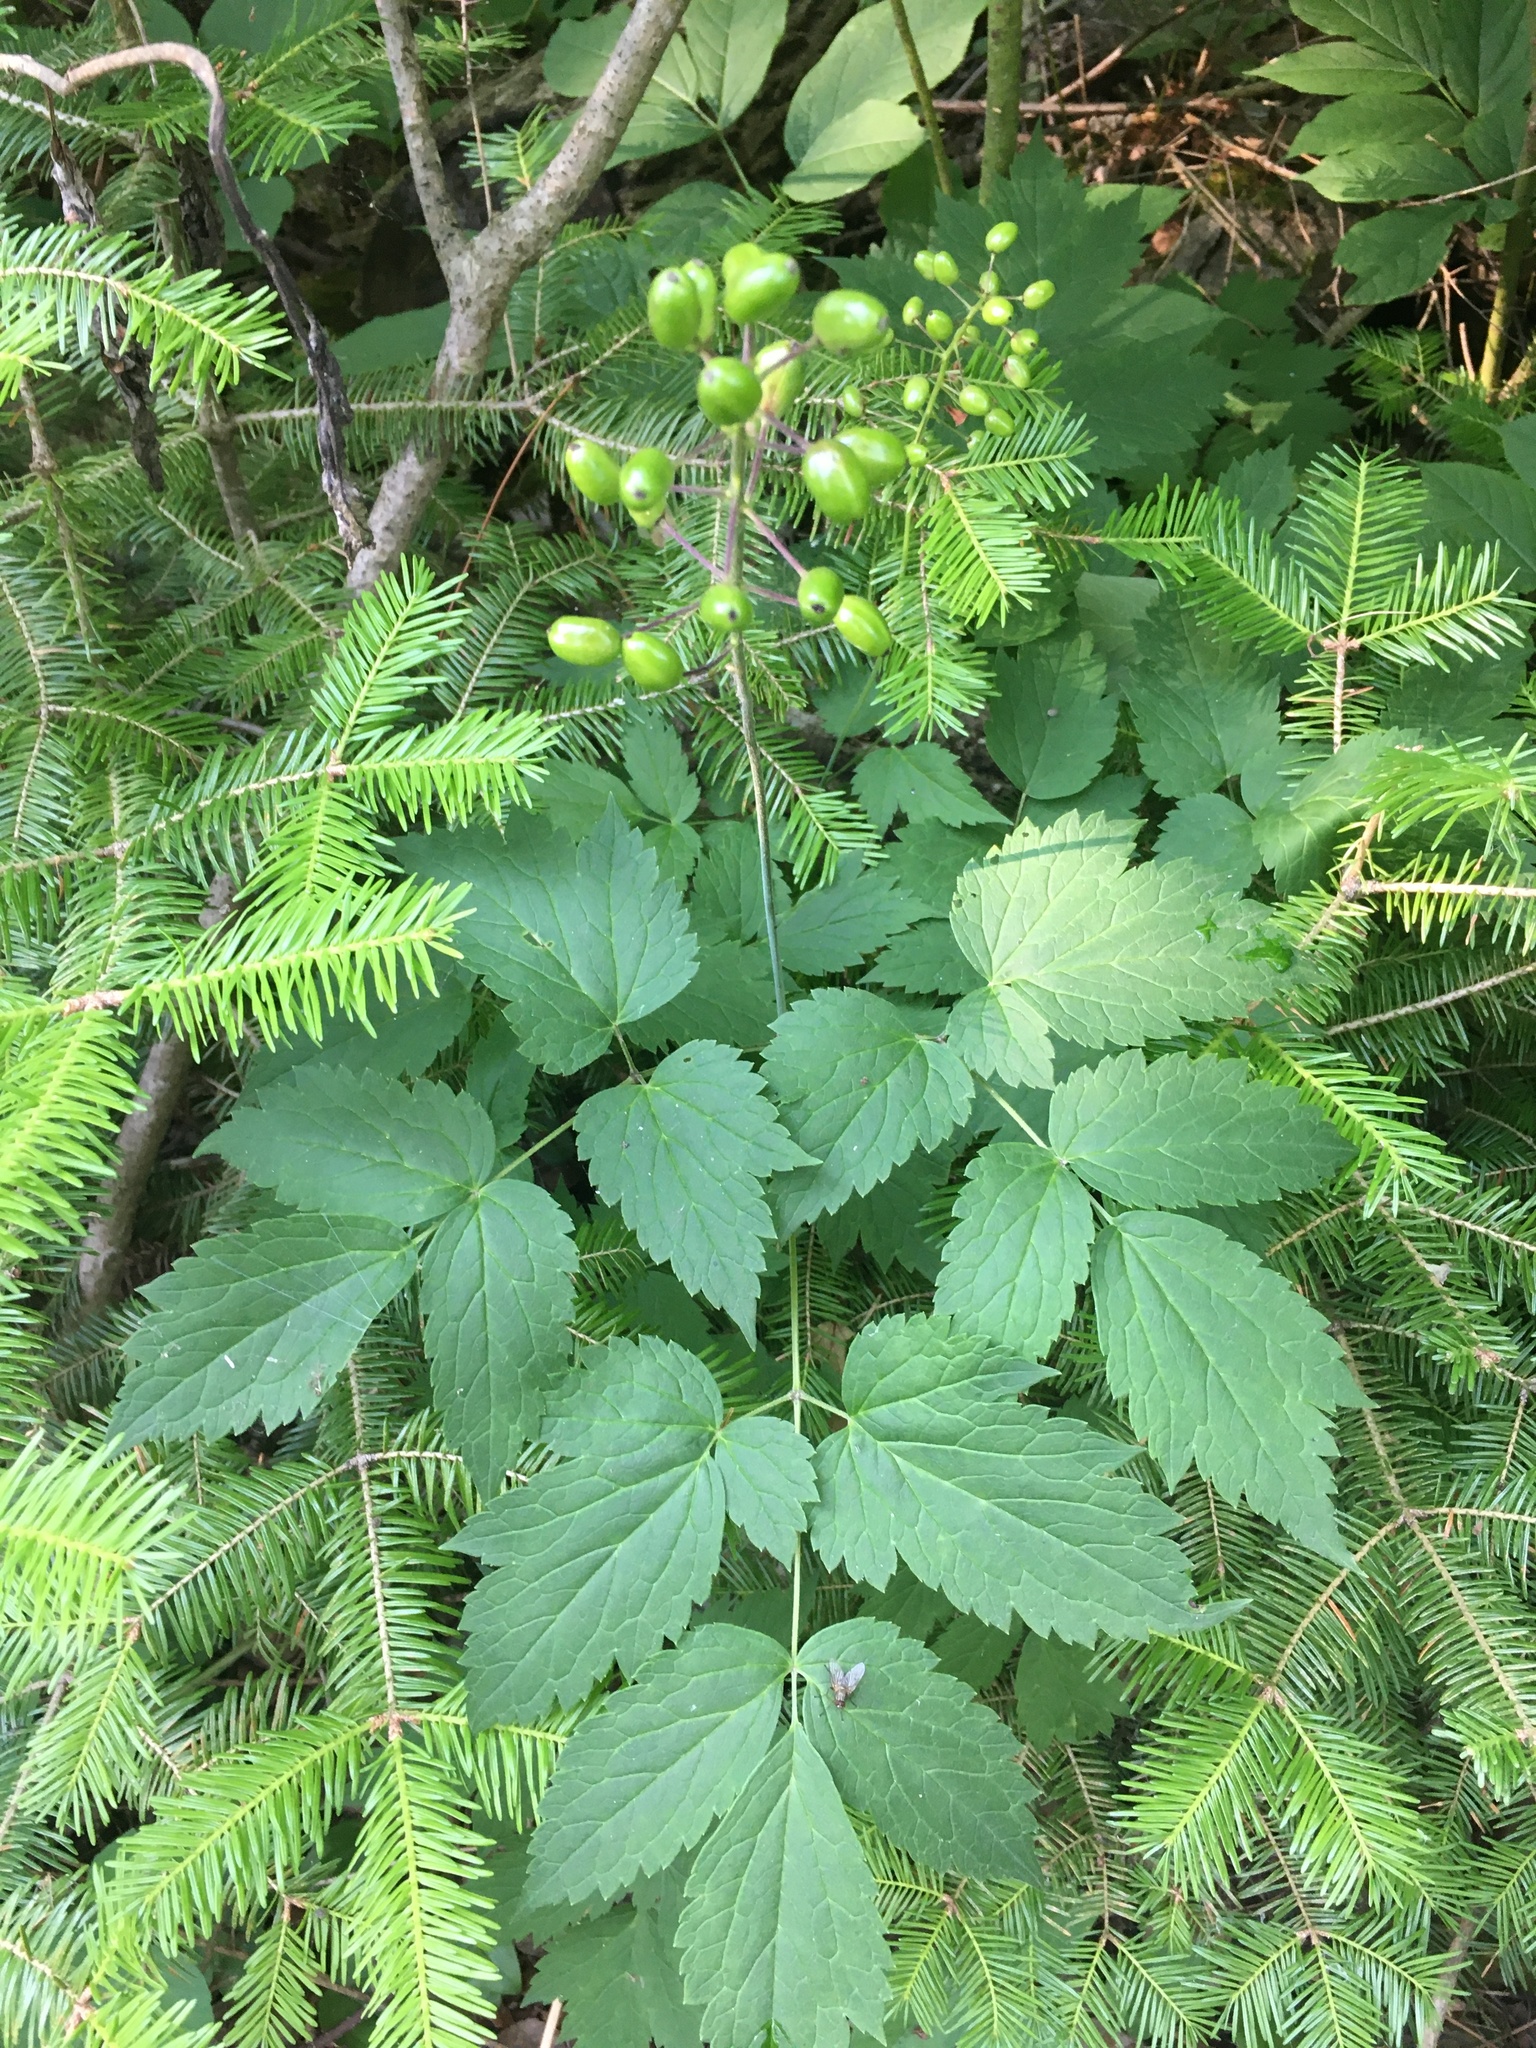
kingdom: Plantae
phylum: Tracheophyta
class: Magnoliopsida
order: Ranunculales
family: Ranunculaceae
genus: Actaea
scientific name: Actaea rubra
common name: Red baneberry
